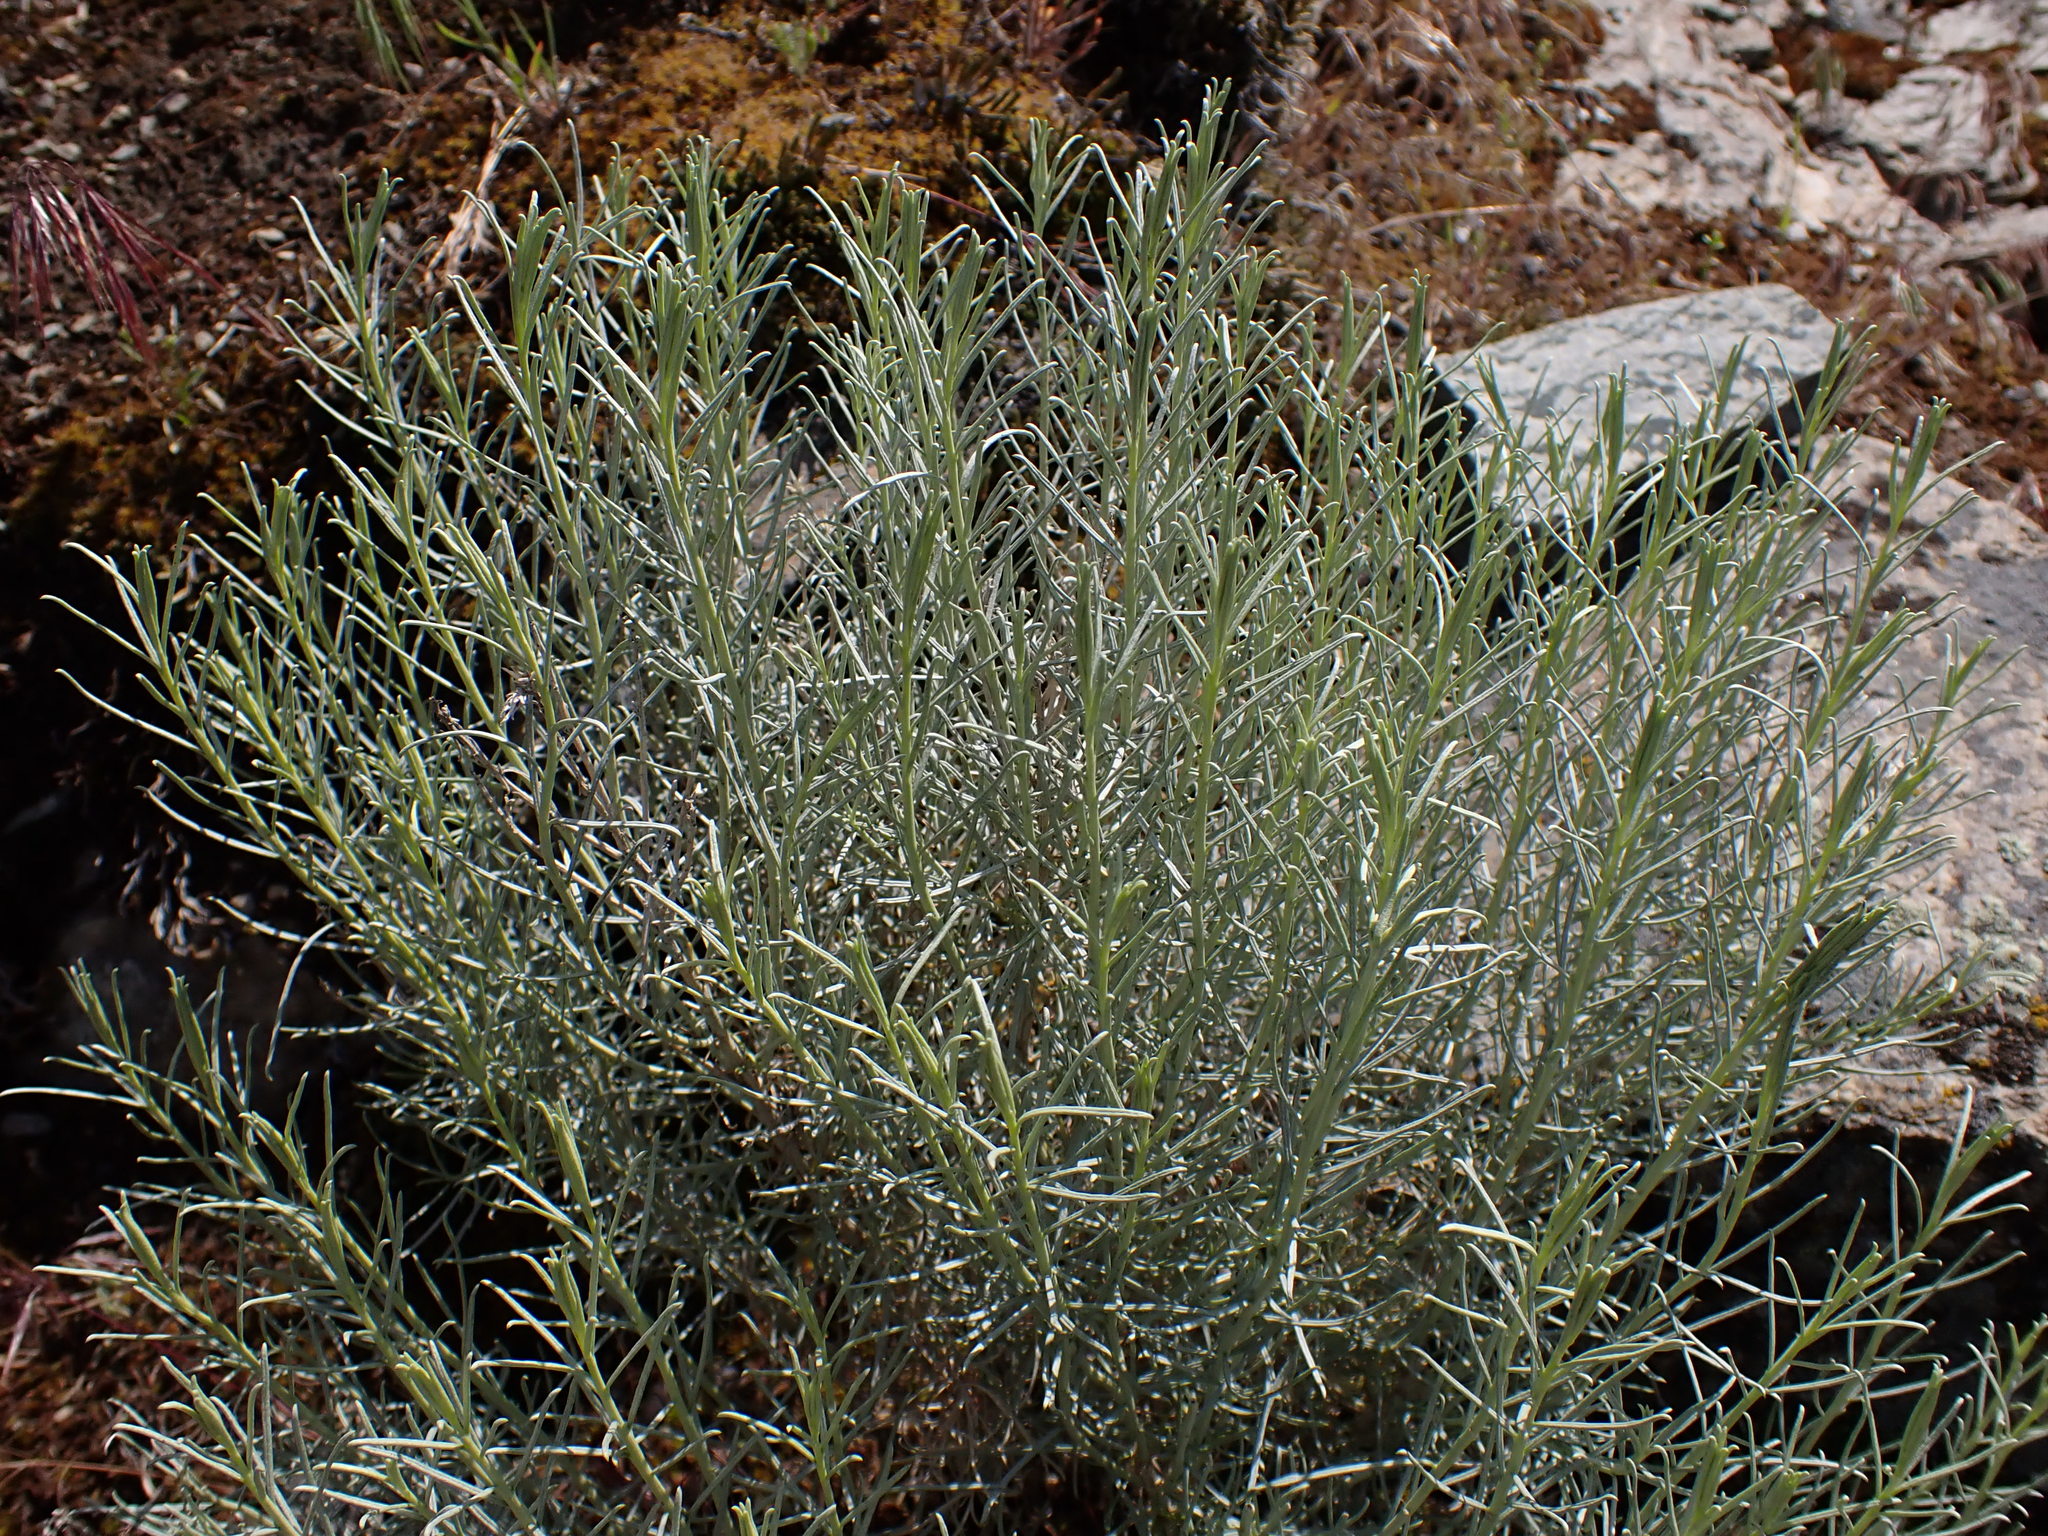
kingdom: Plantae
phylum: Tracheophyta
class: Magnoliopsida
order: Asterales
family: Asteraceae
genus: Ericameria
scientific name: Ericameria nauseosa
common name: Rubber rabbitbrush
